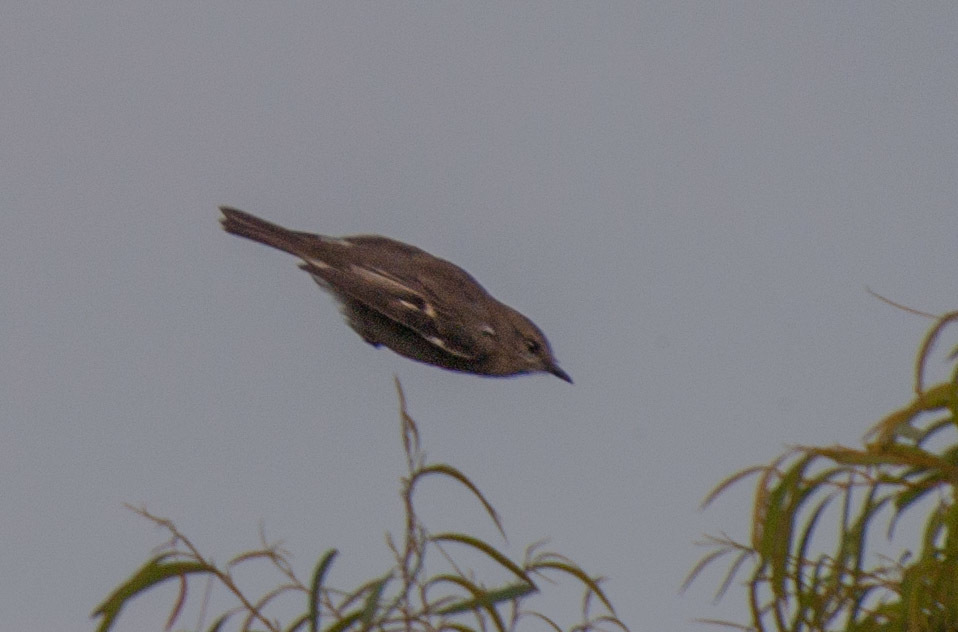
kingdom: Animalia
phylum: Chordata
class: Aves
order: Passeriformes
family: Petroicidae
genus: Melanodryas
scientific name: Melanodryas vittata
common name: Dusky robin
